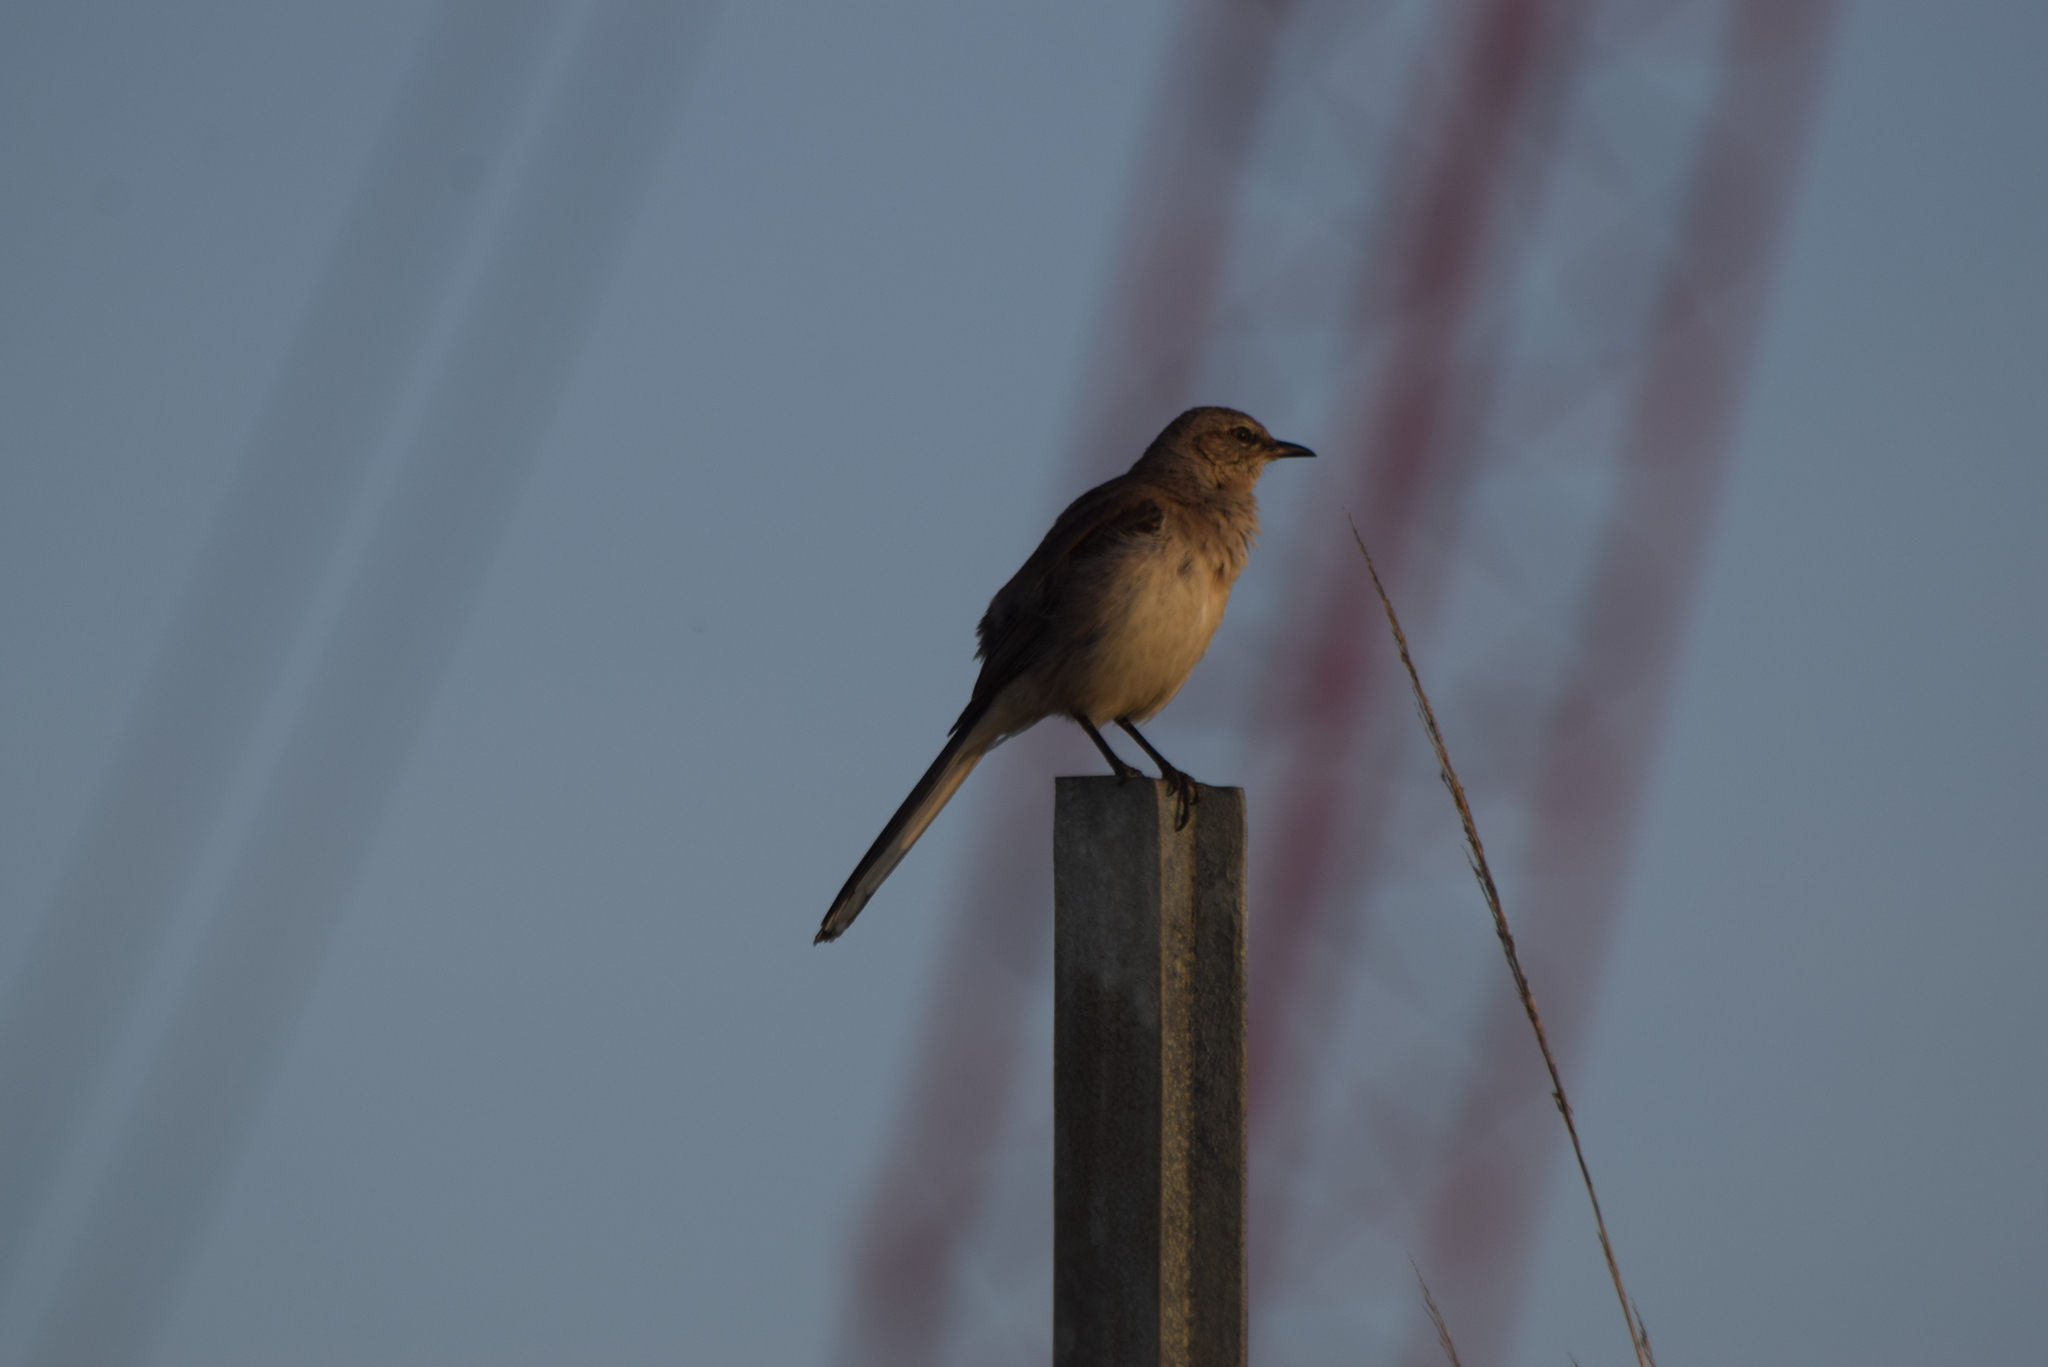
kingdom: Animalia
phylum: Chordata
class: Aves
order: Passeriformes
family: Mimidae
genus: Mimus
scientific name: Mimus polyglottos
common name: Northern mockingbird
